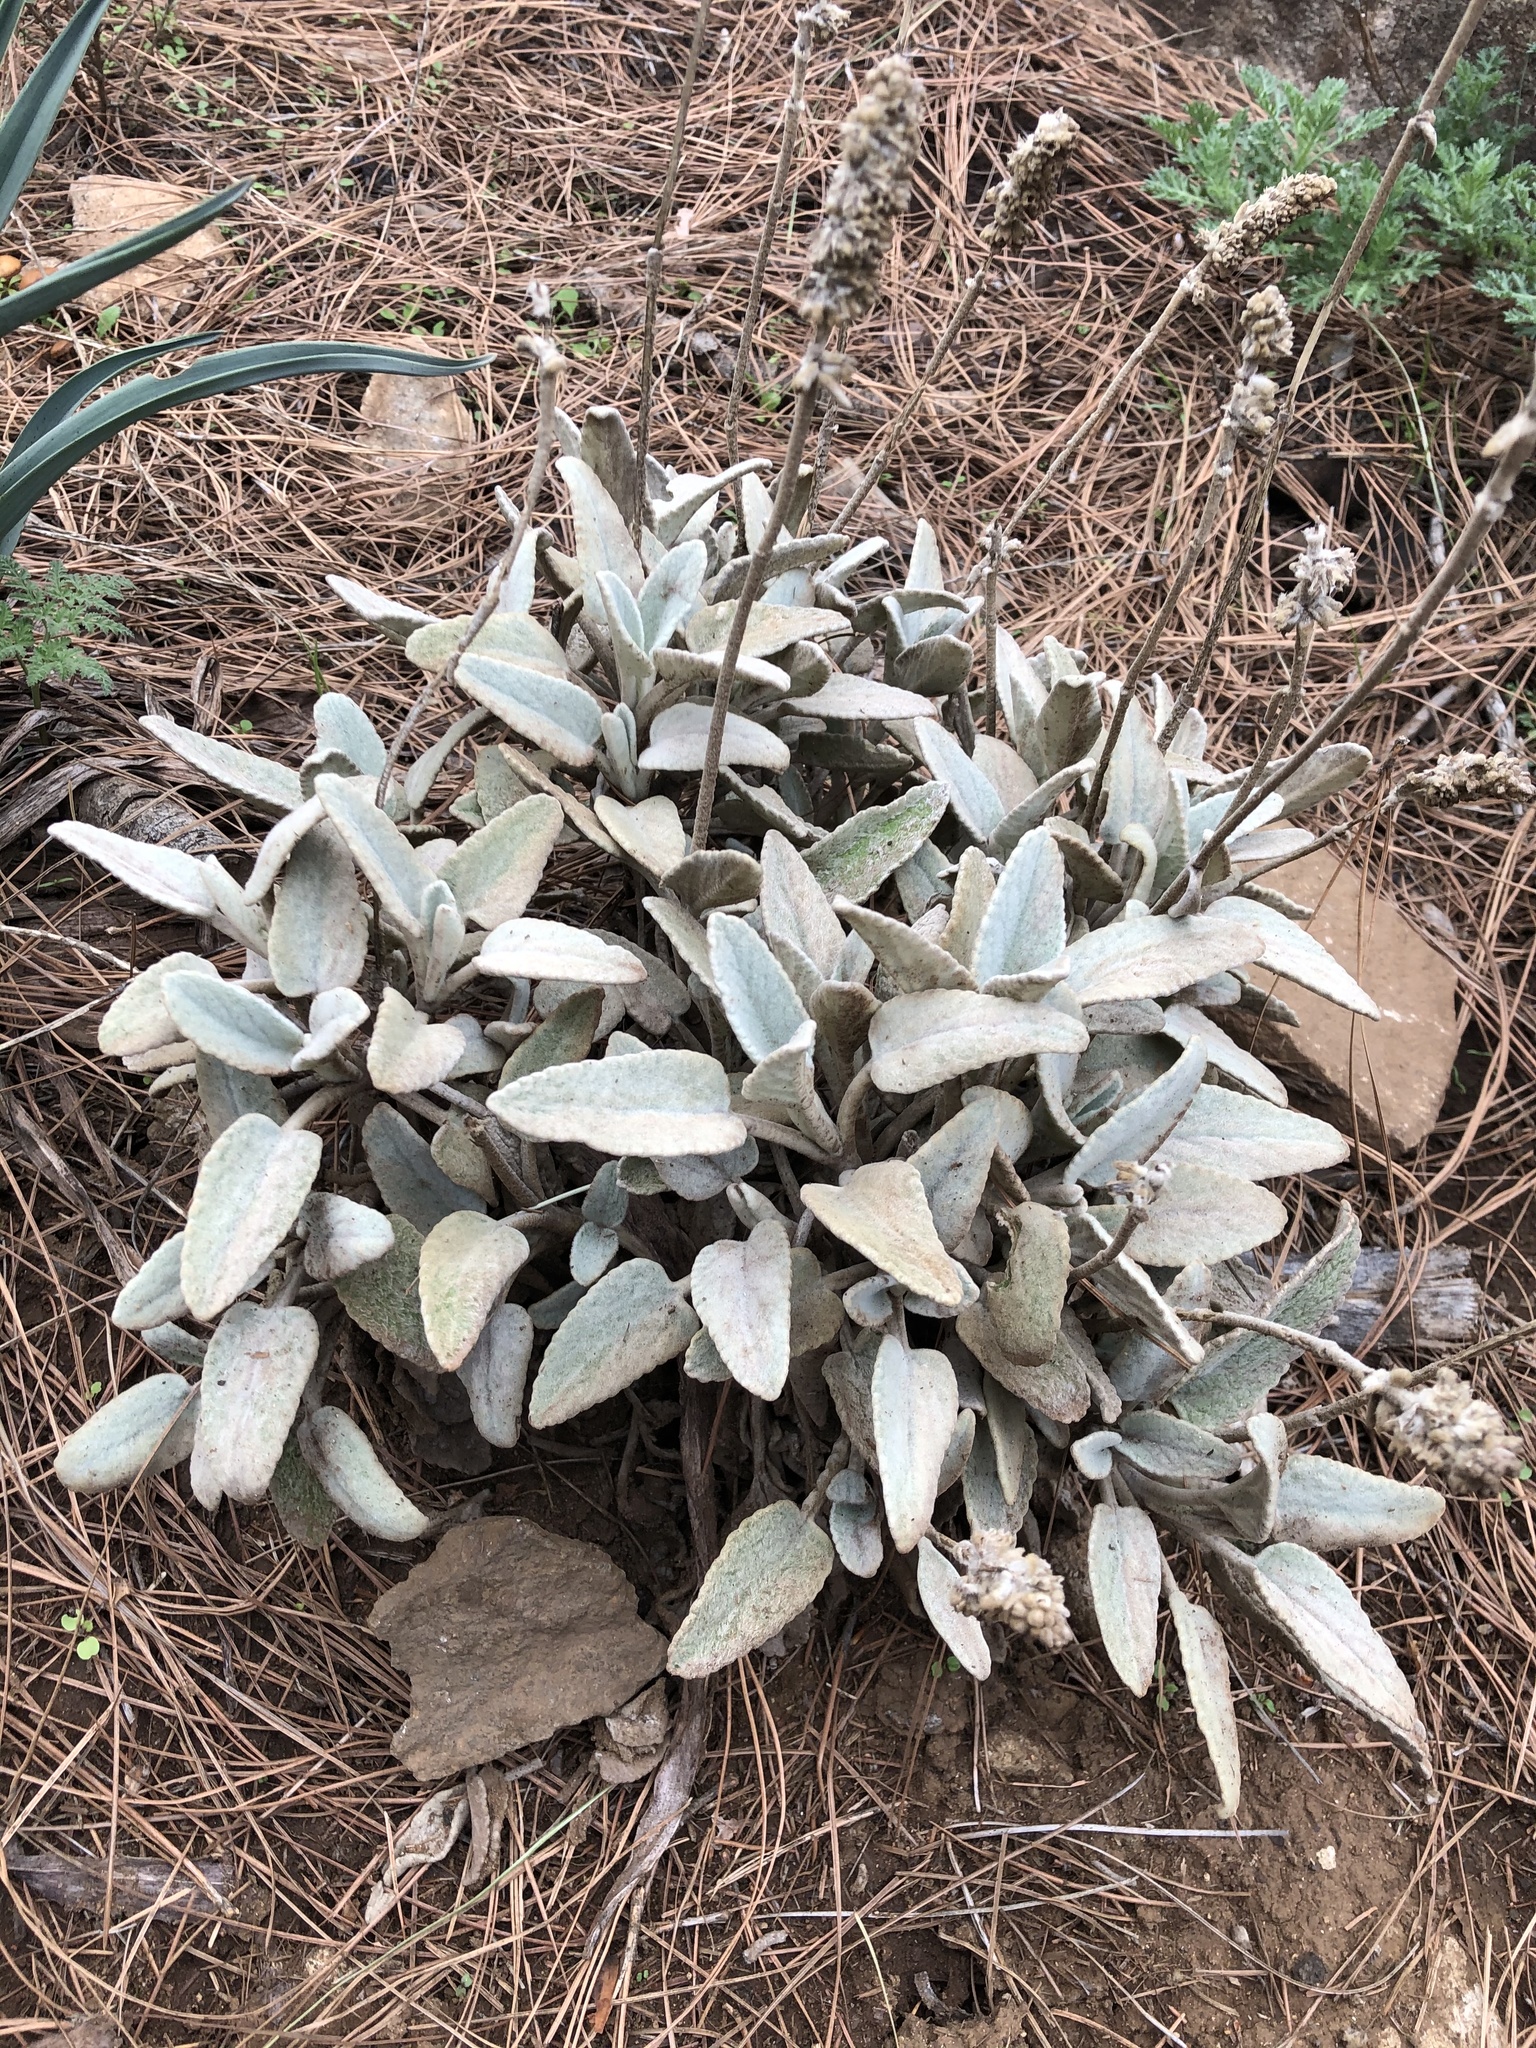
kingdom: Plantae
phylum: Tracheophyta
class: Magnoliopsida
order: Lamiales
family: Lamiaceae
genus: Sideritis
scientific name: Sideritis dasygnaphala
